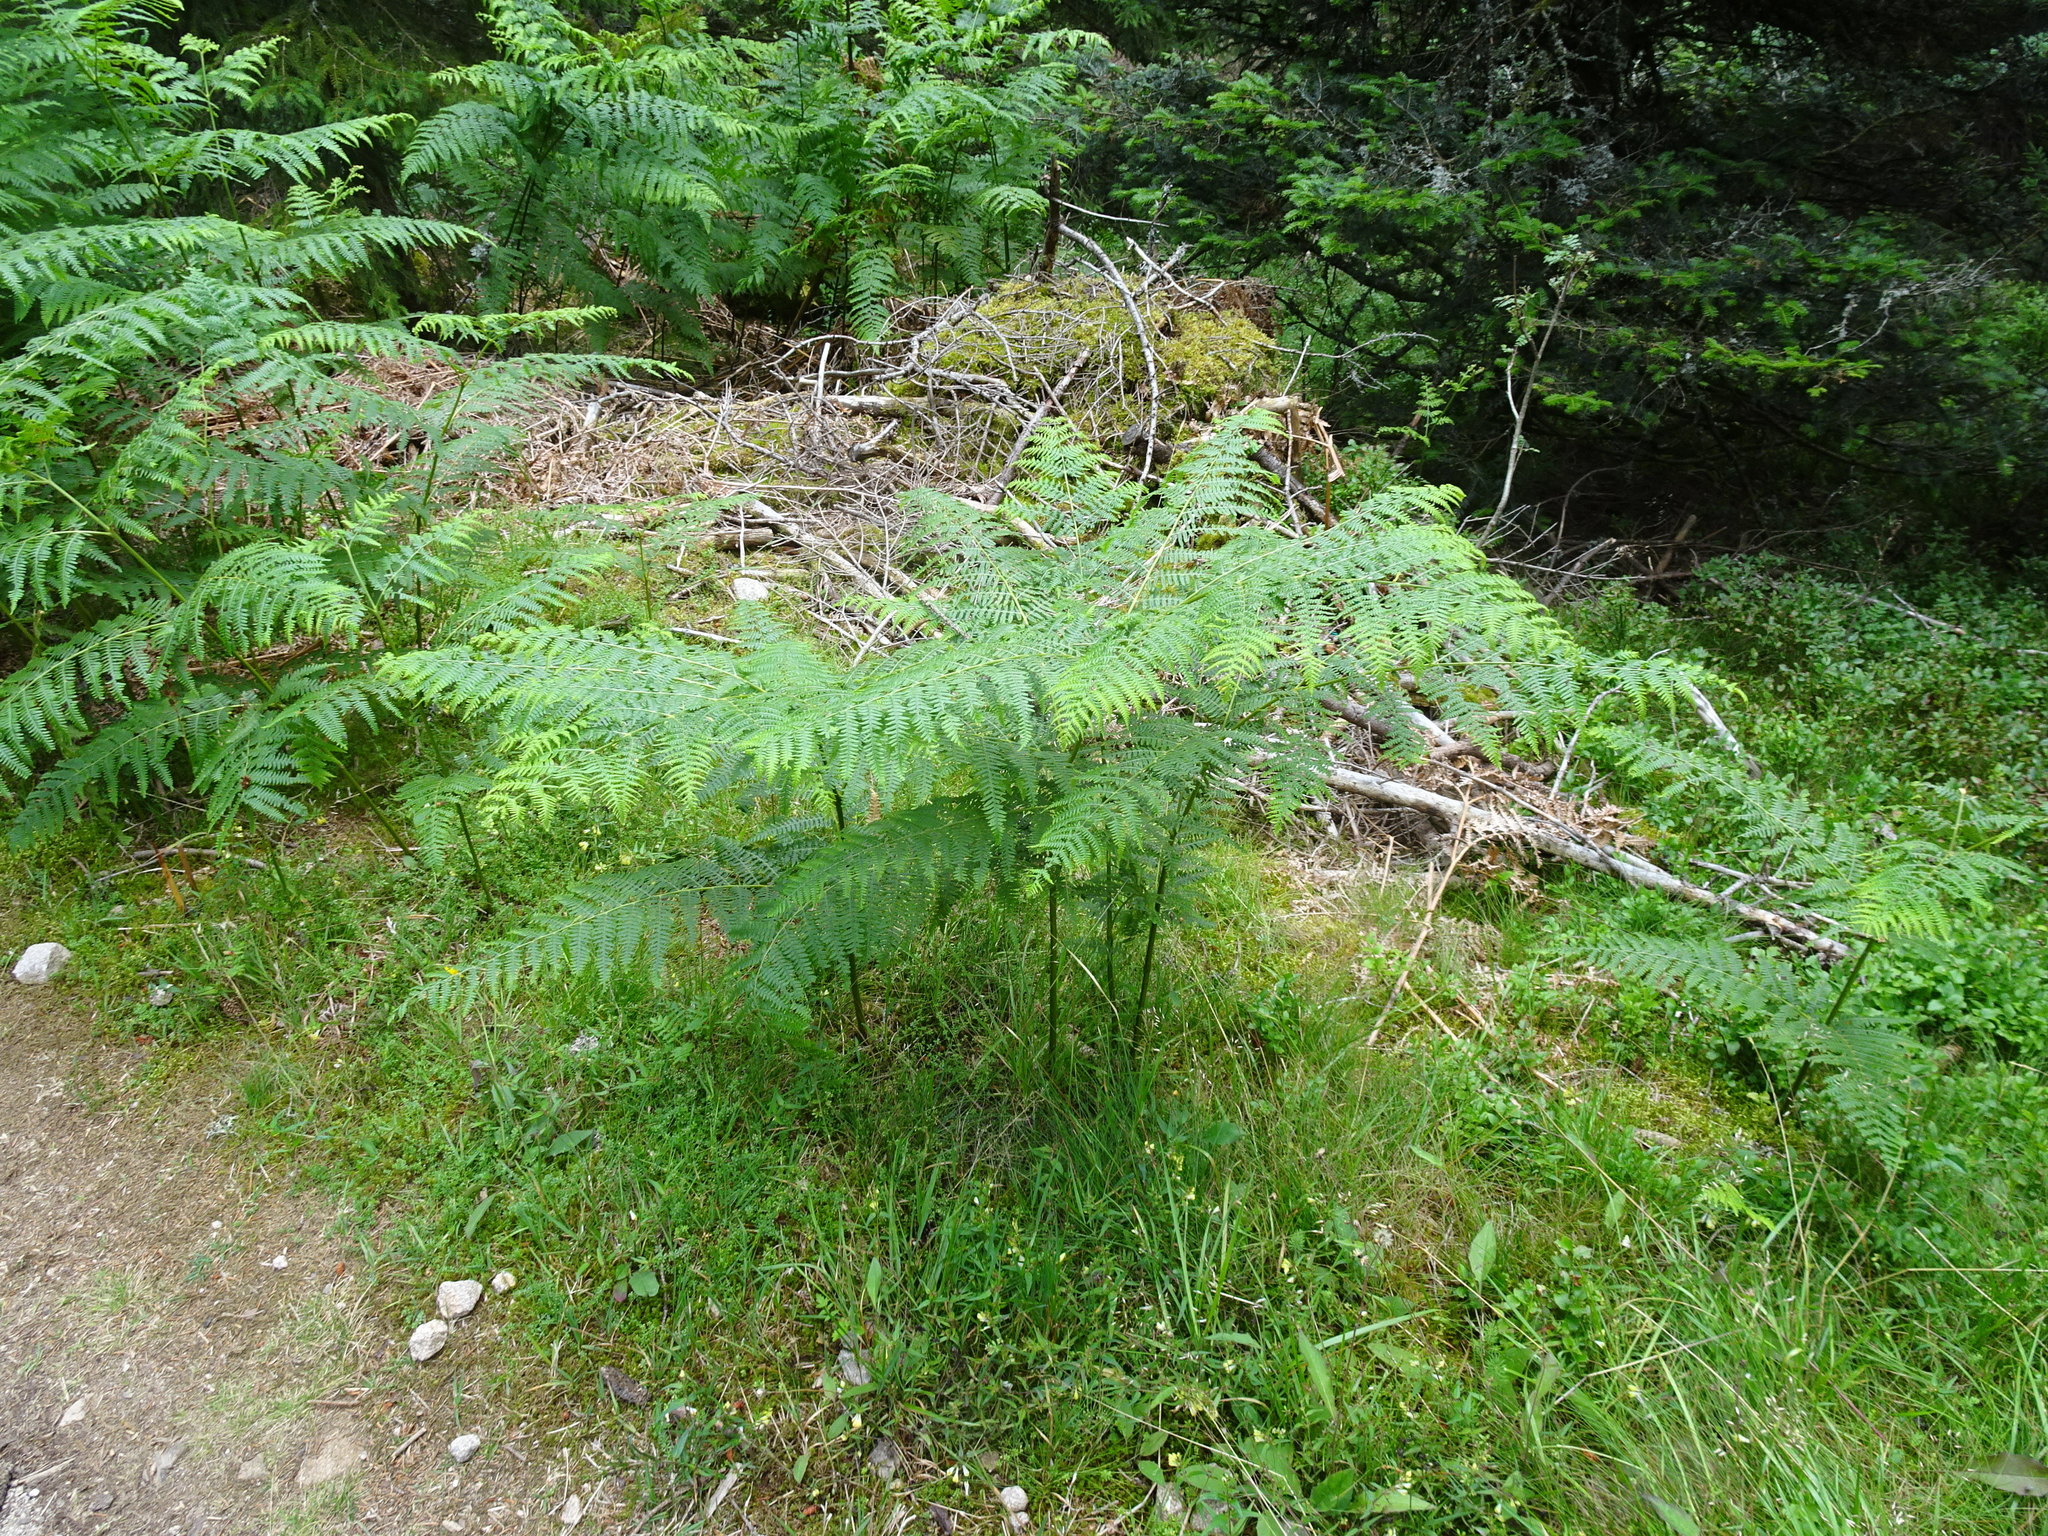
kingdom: Plantae
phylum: Tracheophyta
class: Polypodiopsida
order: Polypodiales
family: Dennstaedtiaceae
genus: Pteridium
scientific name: Pteridium aquilinum
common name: Bracken
